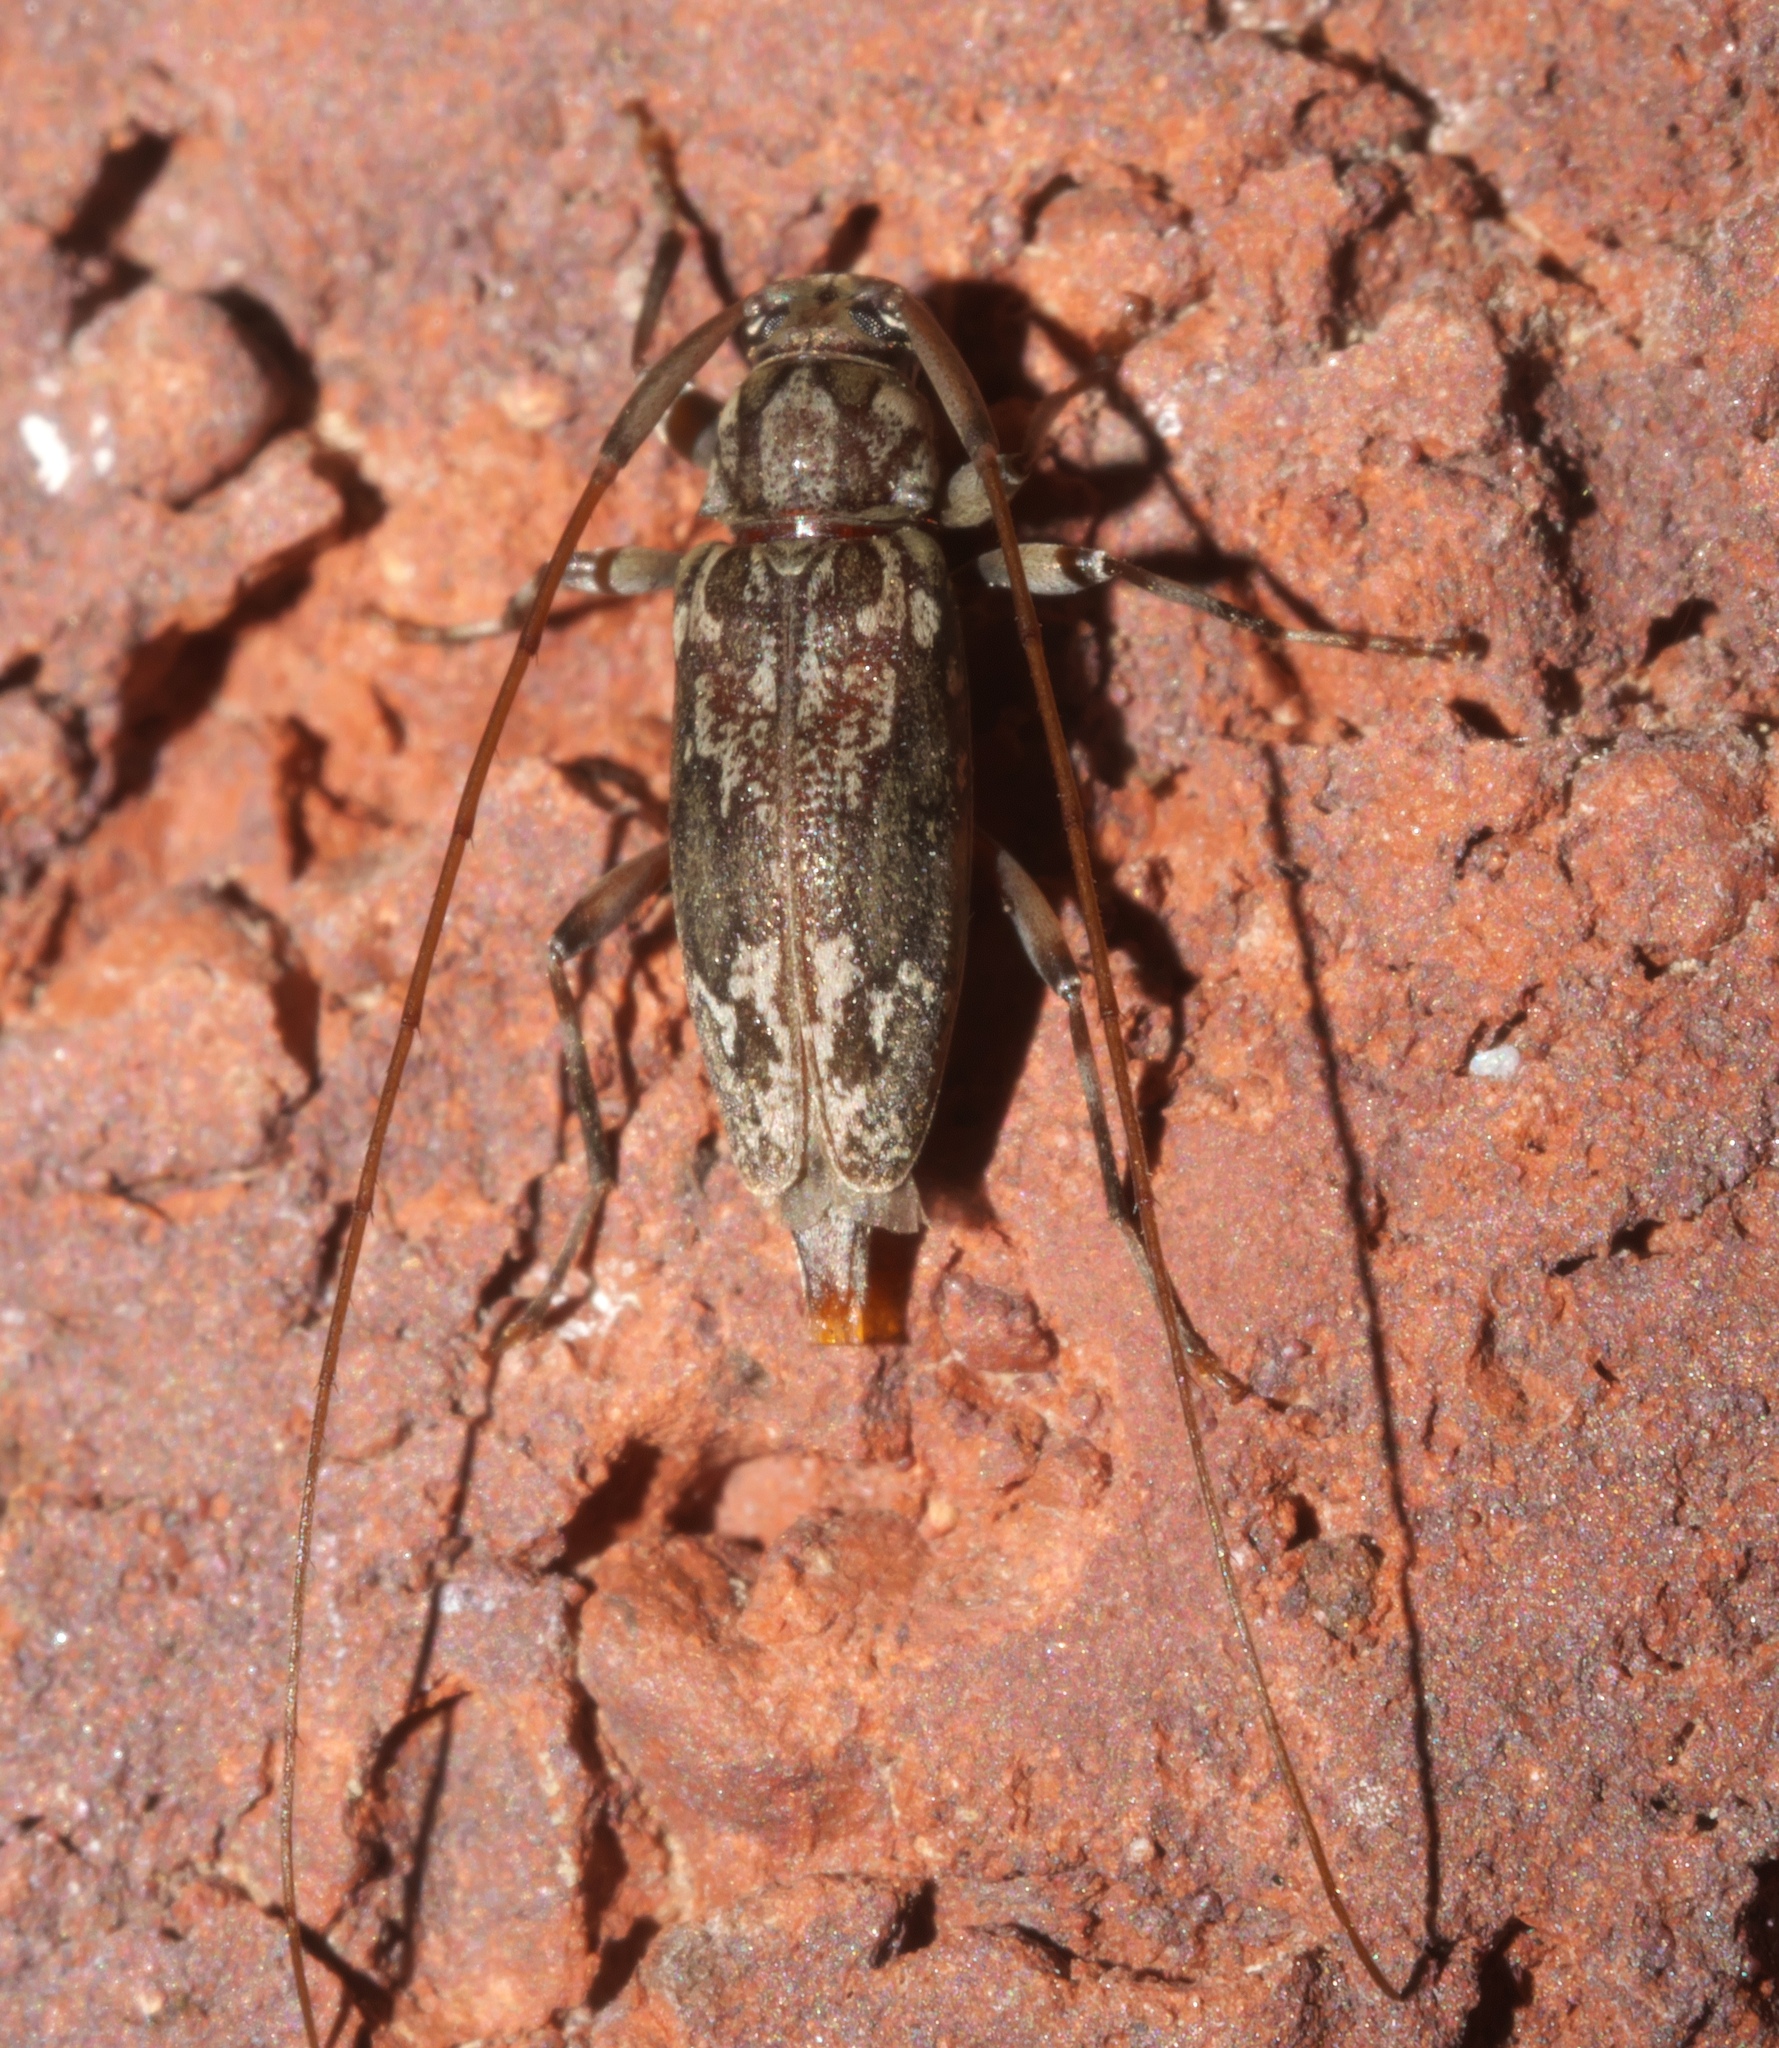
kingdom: Animalia
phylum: Arthropoda
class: Insecta
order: Coleoptera
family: Cerambycidae
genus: Lepturges
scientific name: Lepturges confluens
